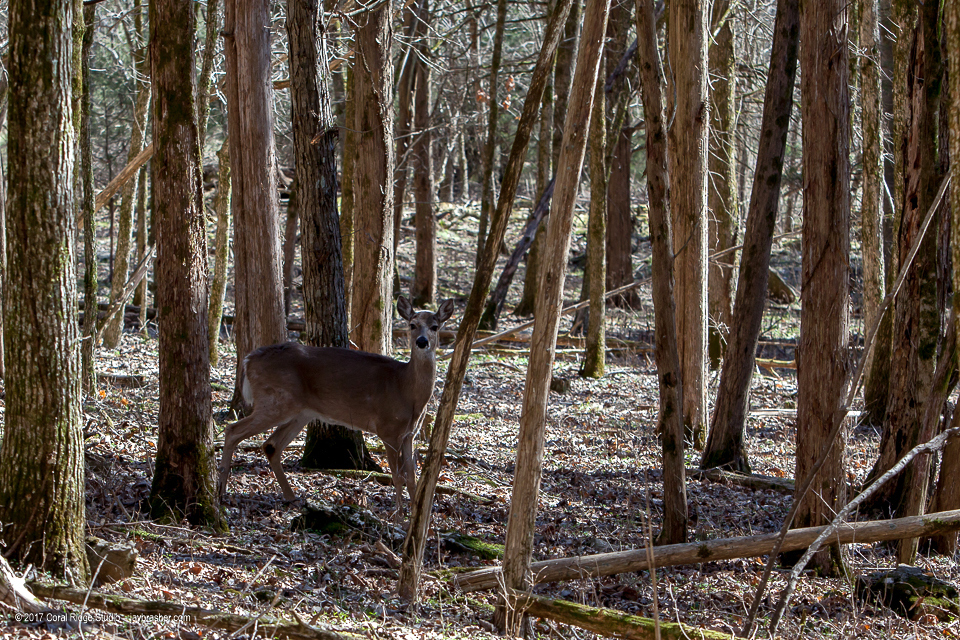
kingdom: Animalia
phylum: Chordata
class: Mammalia
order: Artiodactyla
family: Cervidae
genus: Odocoileus
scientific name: Odocoileus virginianus
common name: White-tailed deer
